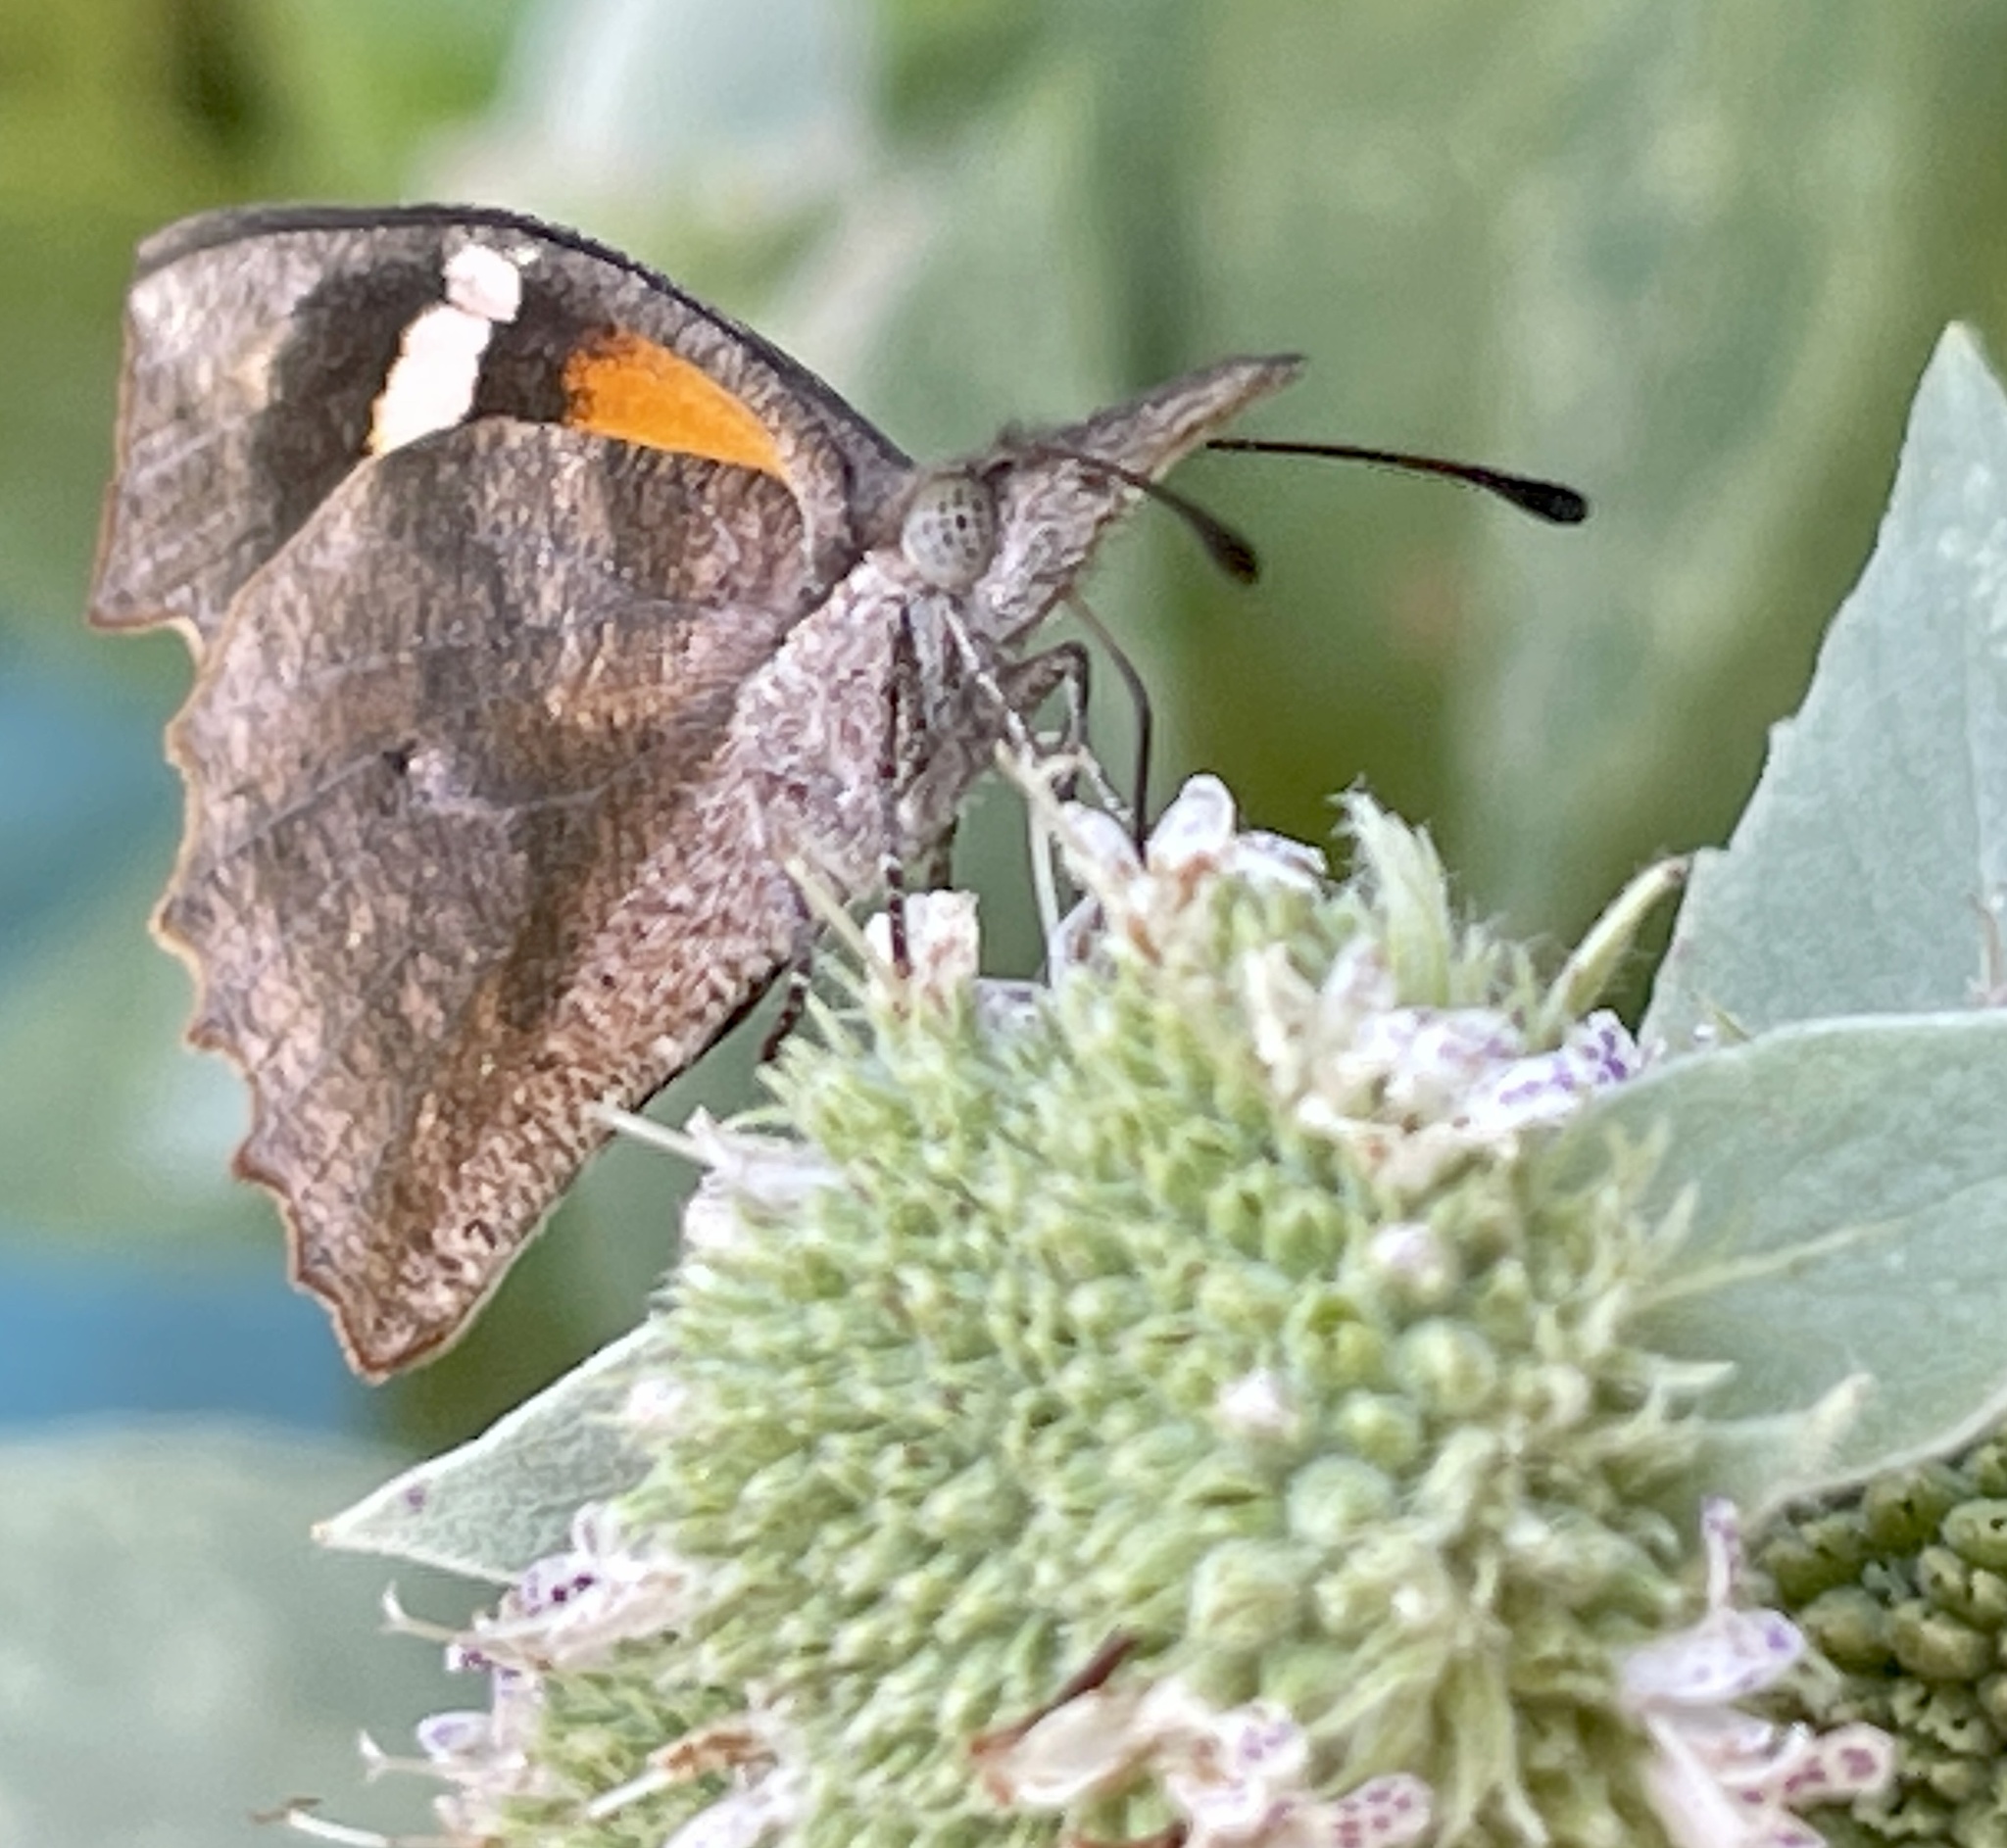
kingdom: Animalia
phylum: Arthropoda
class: Insecta
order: Lepidoptera
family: Nymphalidae
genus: Libytheana
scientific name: Libytheana carinenta
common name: American snout
